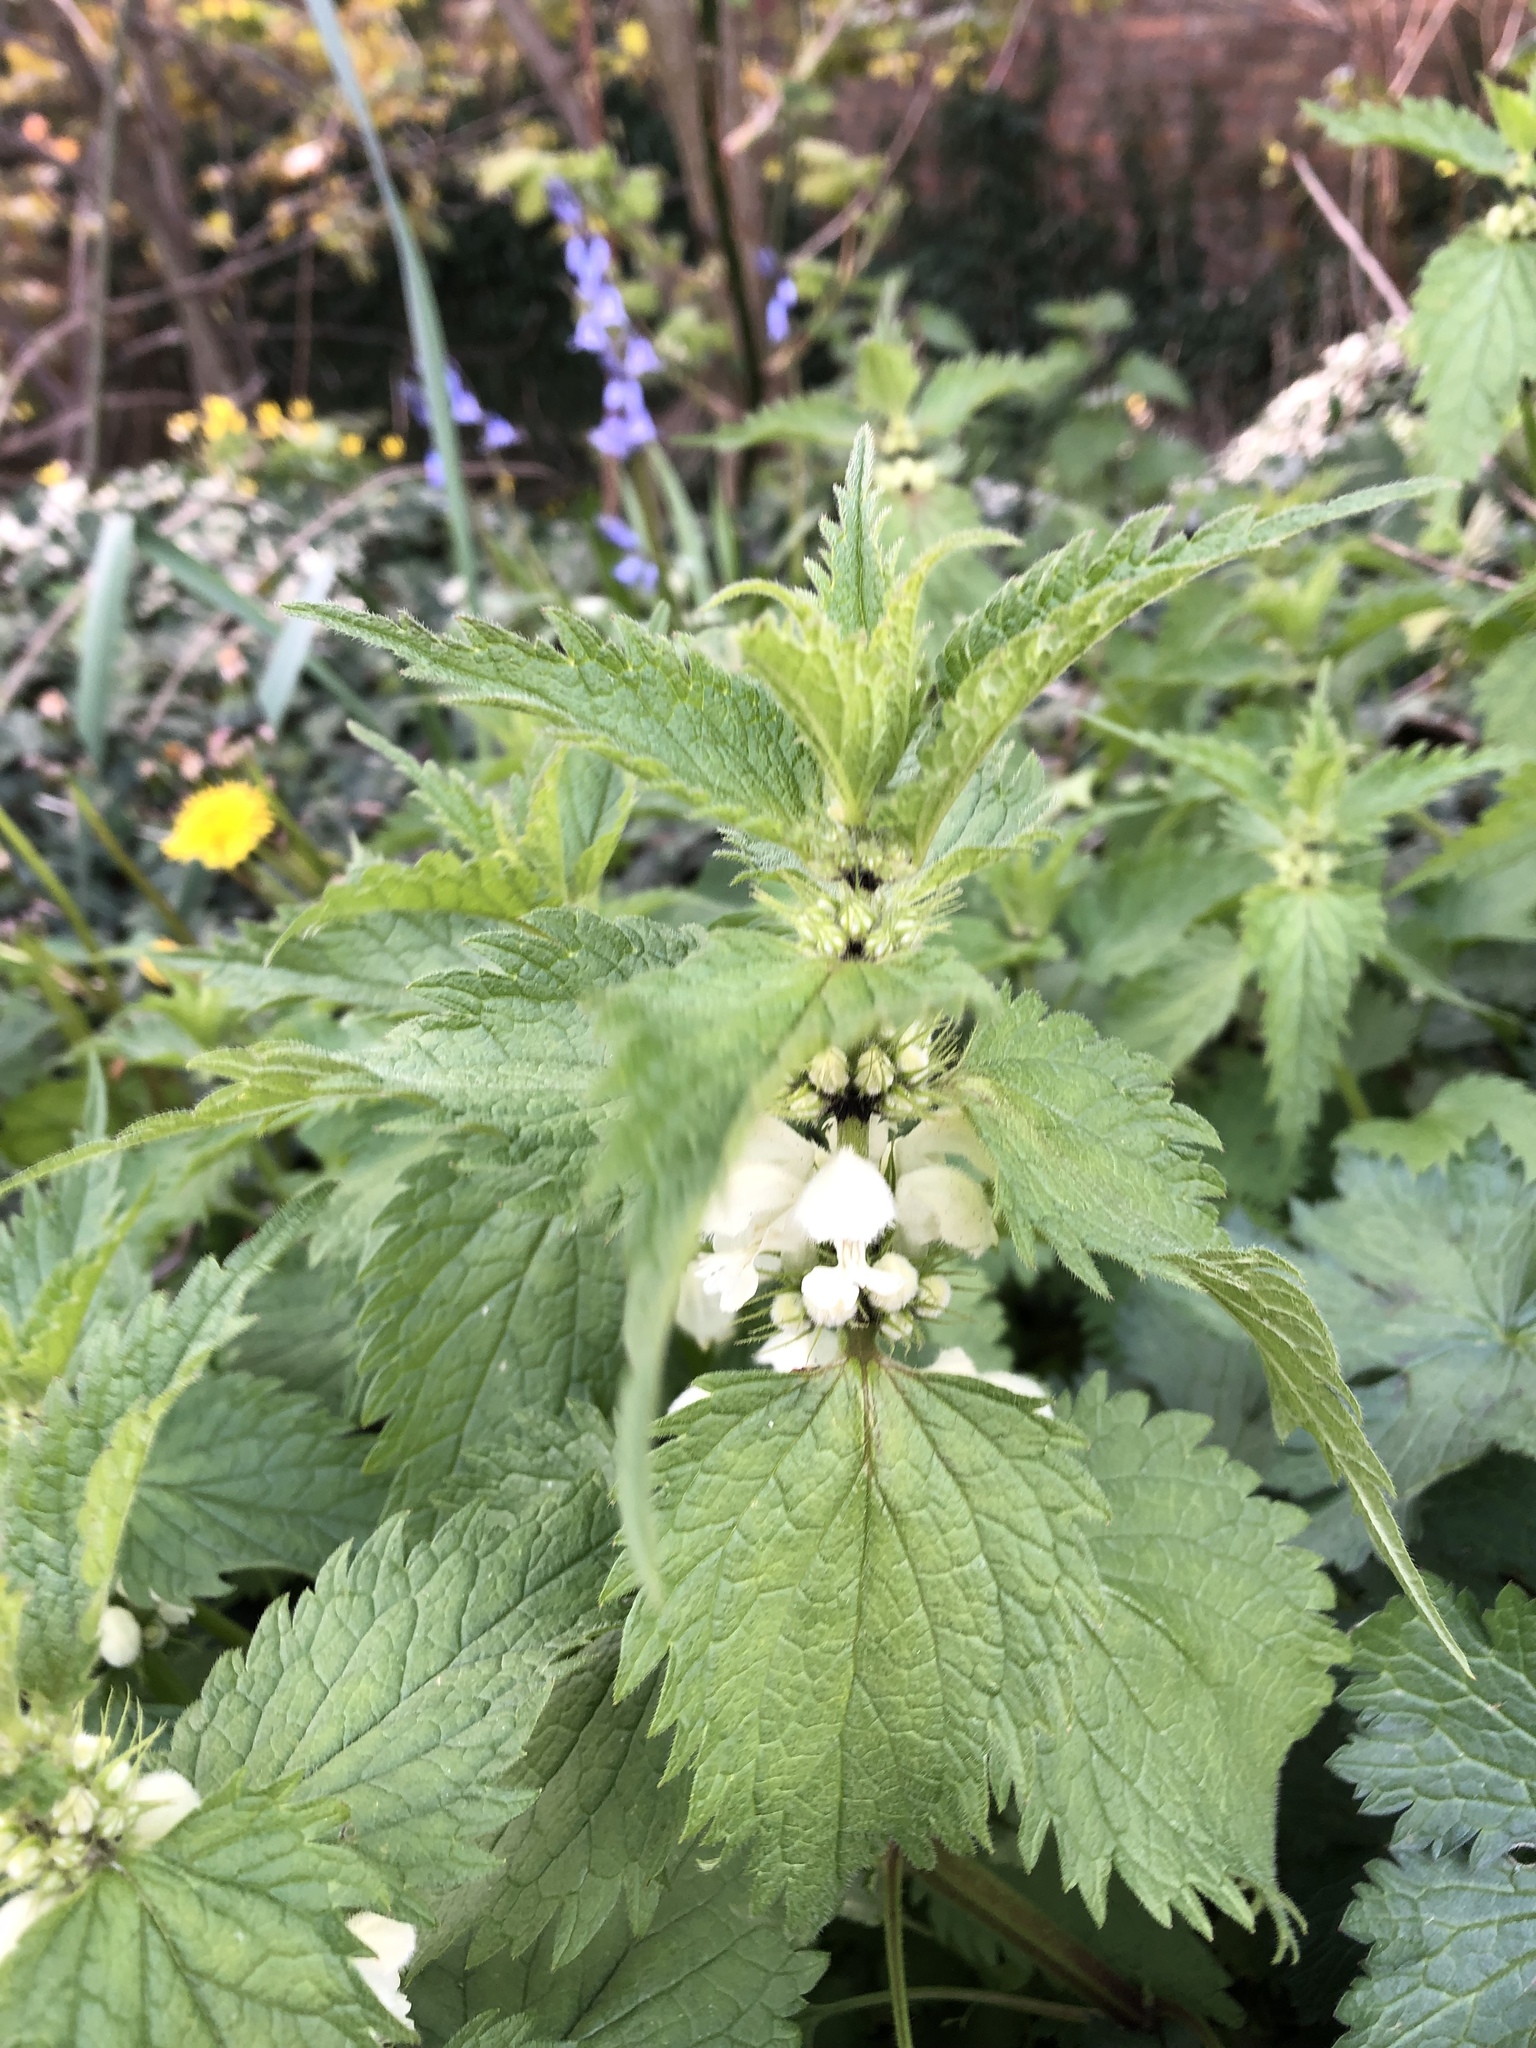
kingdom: Plantae
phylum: Tracheophyta
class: Magnoliopsida
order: Lamiales
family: Lamiaceae
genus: Lamium
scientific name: Lamium album
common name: White dead-nettle
